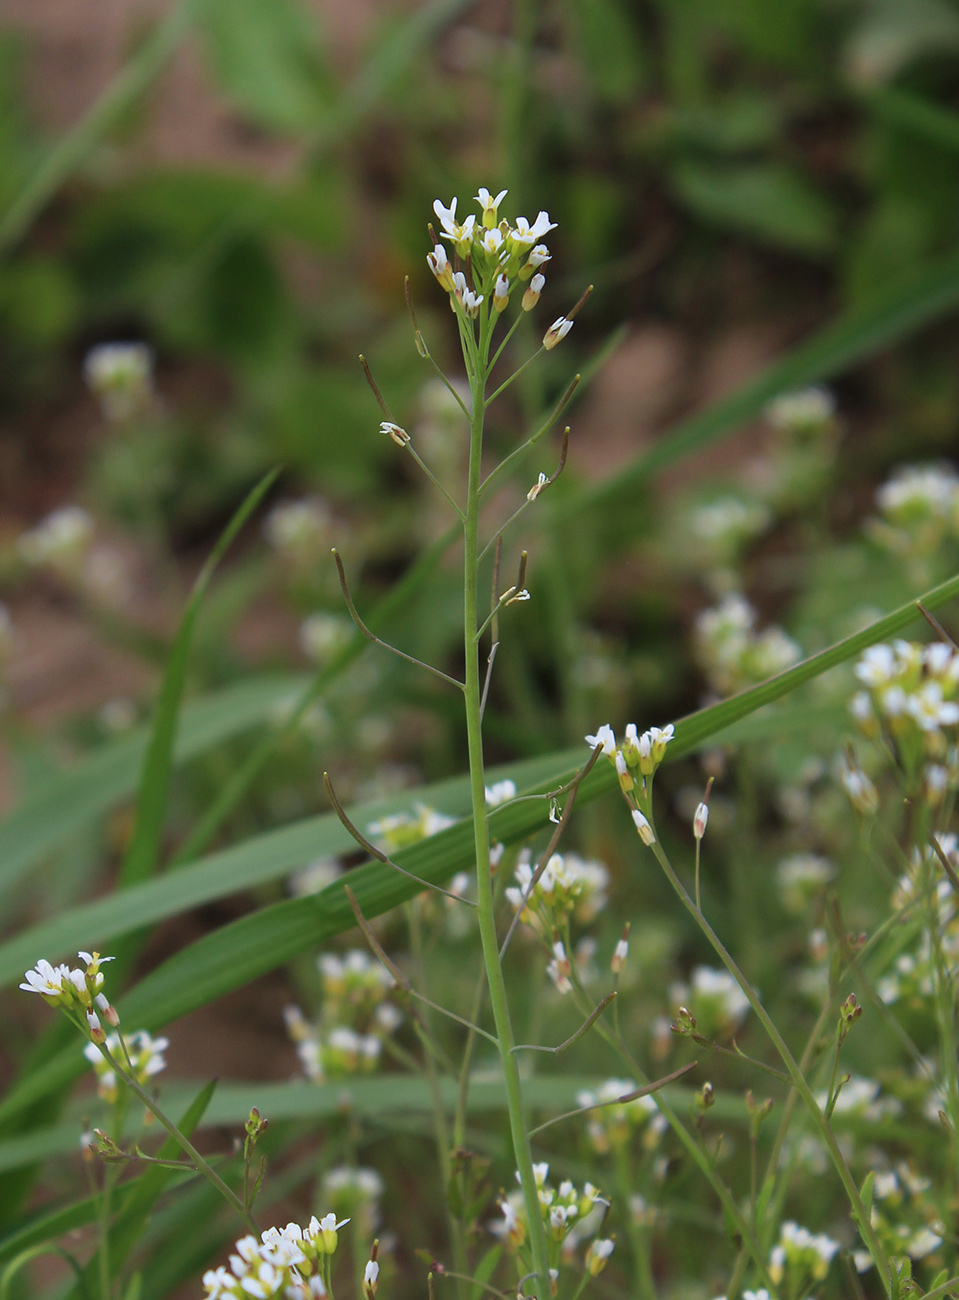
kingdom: Plantae
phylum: Tracheophyta
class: Magnoliopsida
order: Brassicales
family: Brassicaceae
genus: Arabidopsis
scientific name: Arabidopsis thaliana
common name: Thale cress
